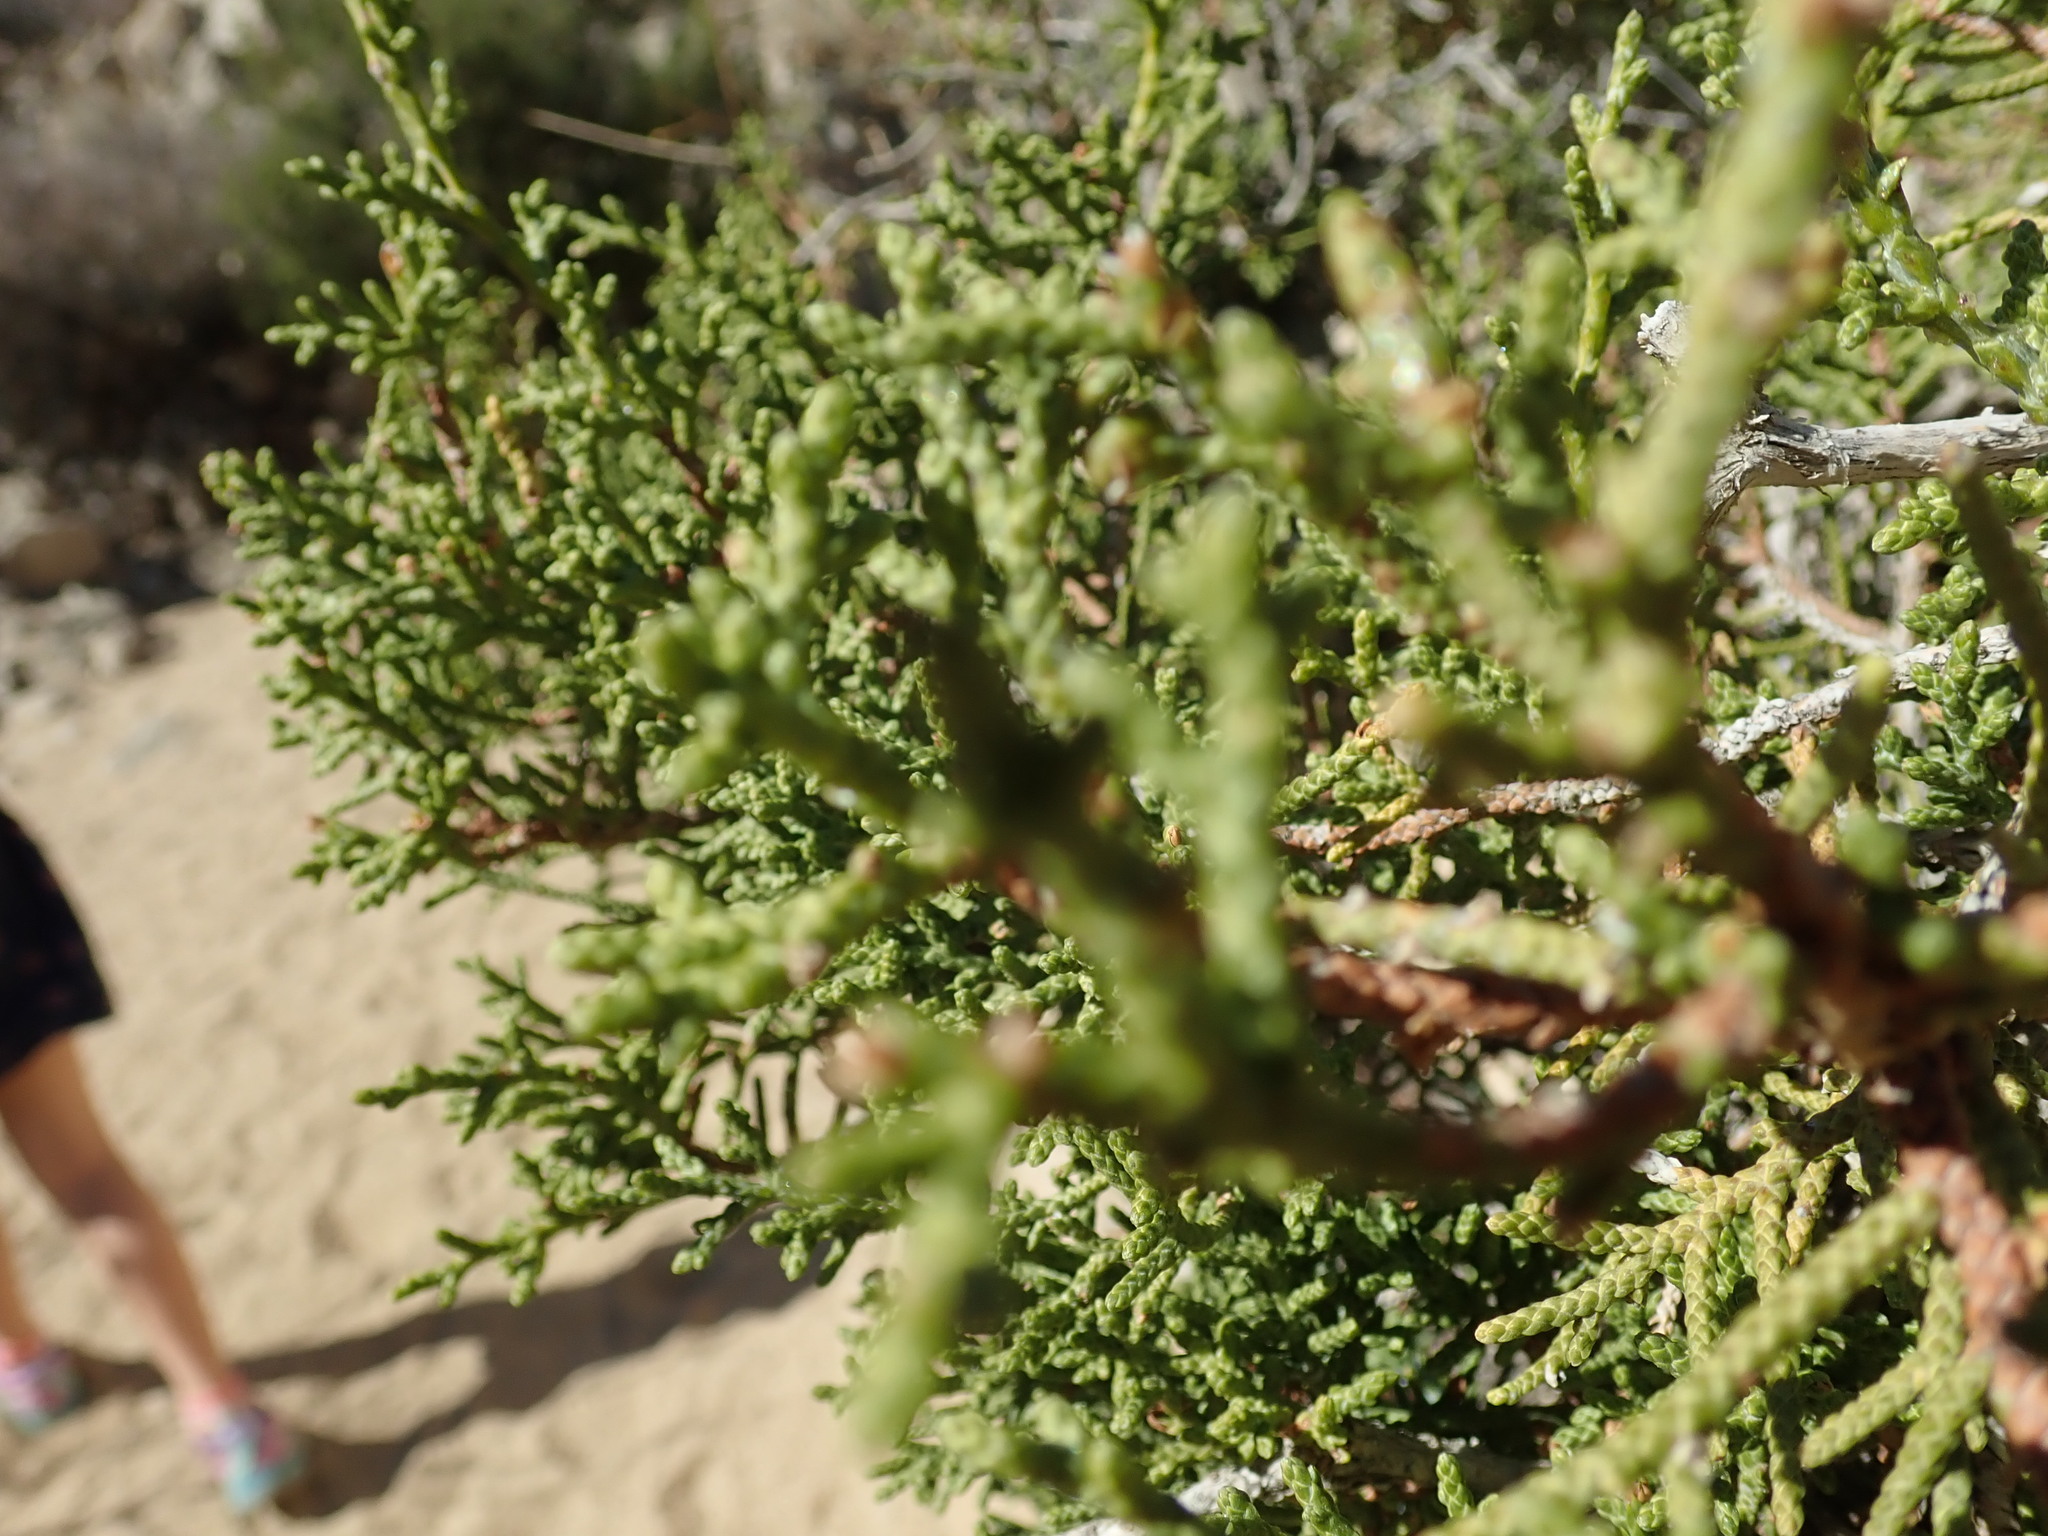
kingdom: Plantae
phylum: Tracheophyta
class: Pinopsida
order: Pinales
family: Cupressaceae
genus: Juniperus
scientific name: Juniperus californica
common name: California juniper
